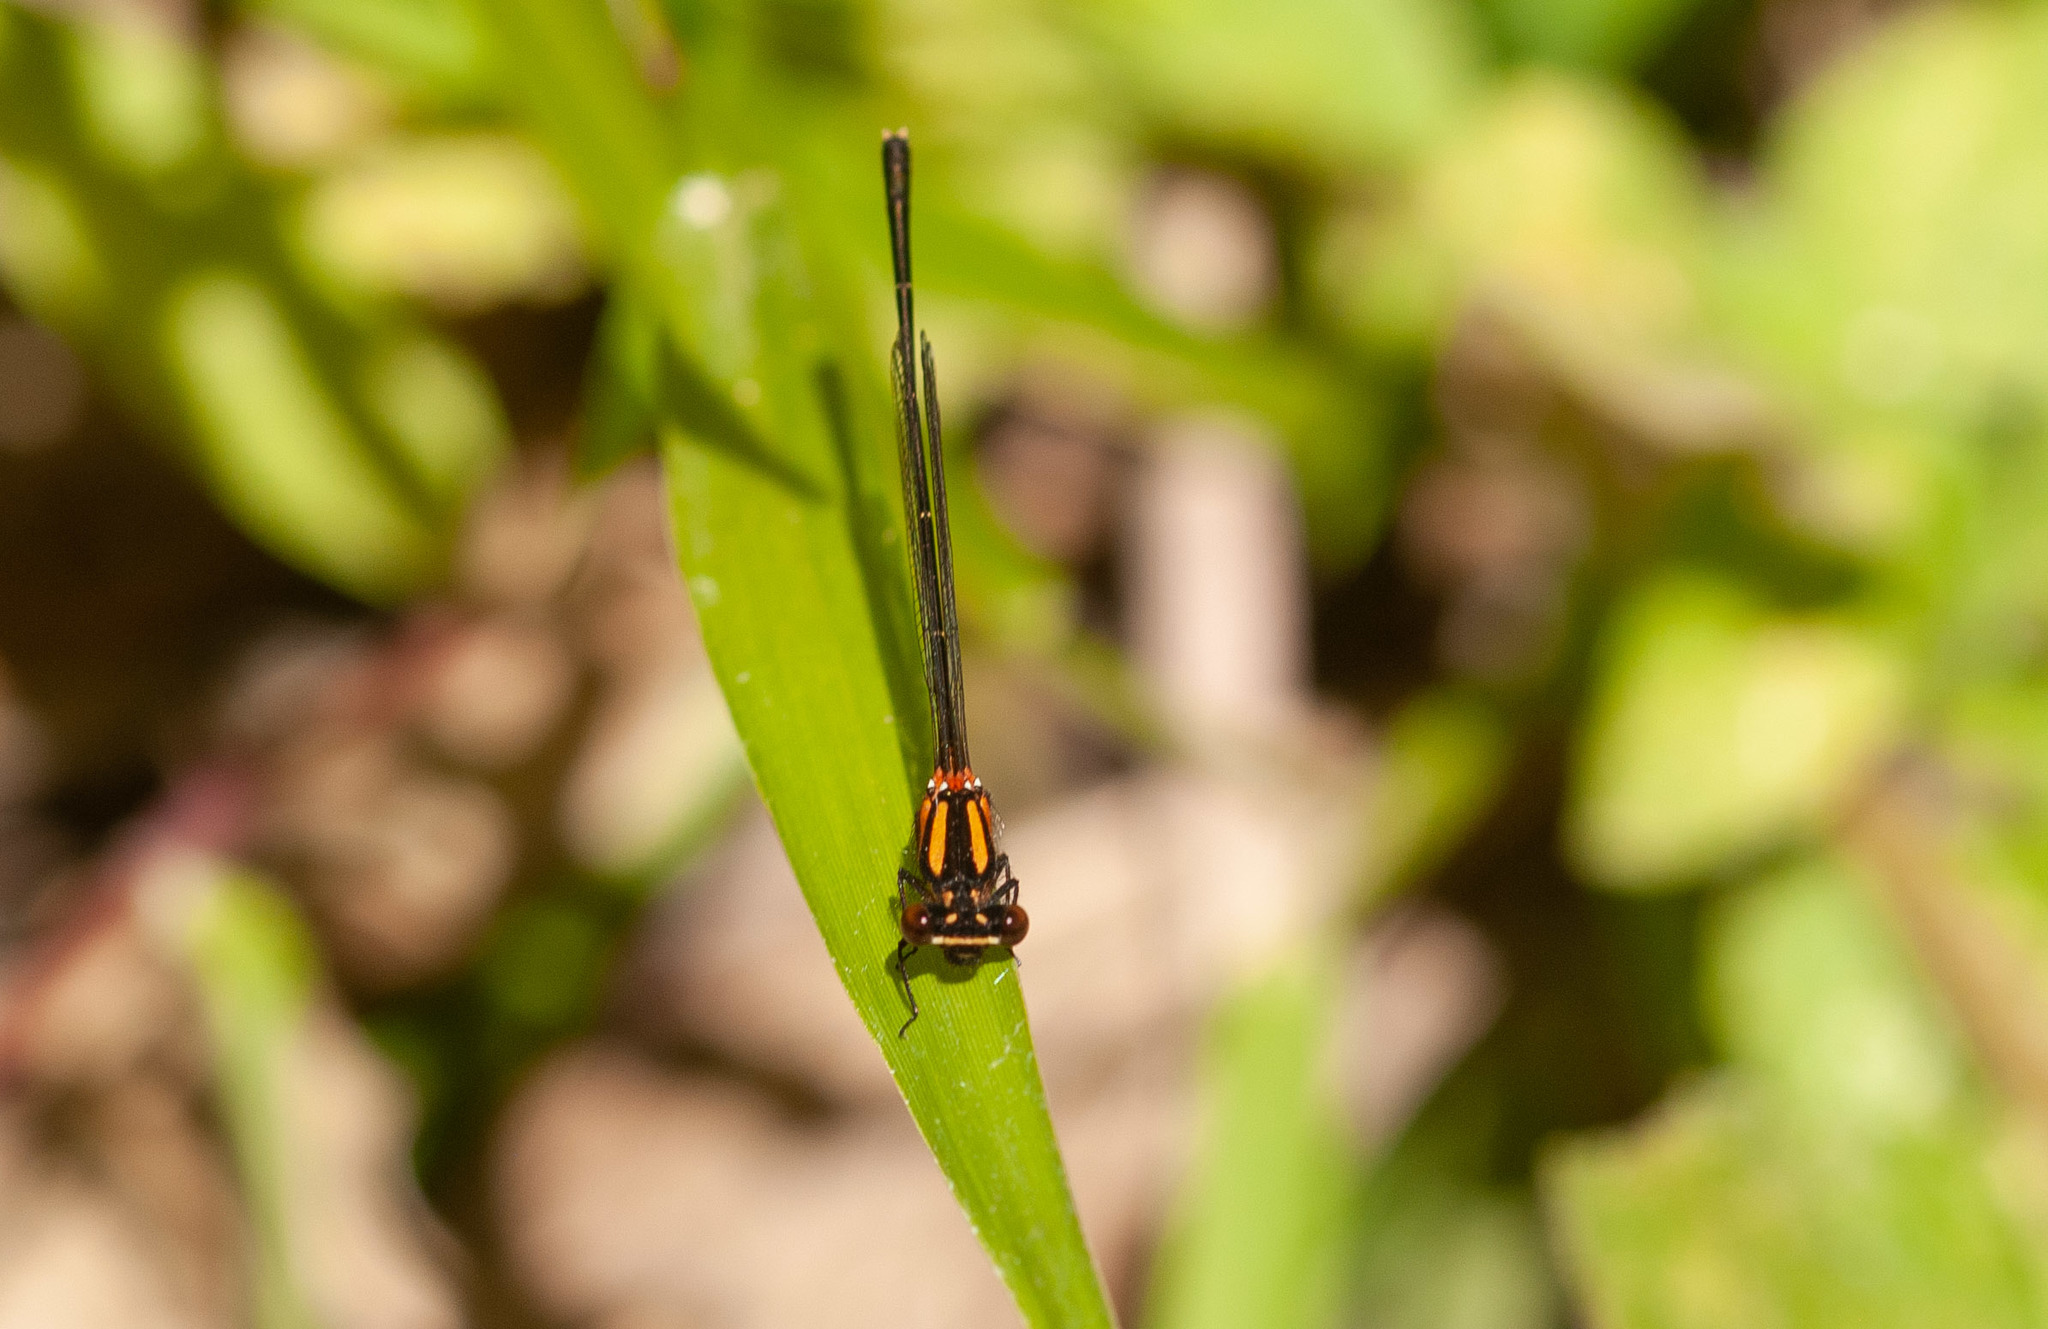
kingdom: Animalia
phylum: Arthropoda
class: Insecta
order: Odonata
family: Platycnemididae
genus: Nososticta
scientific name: Nososticta solida
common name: Orange threadtail
